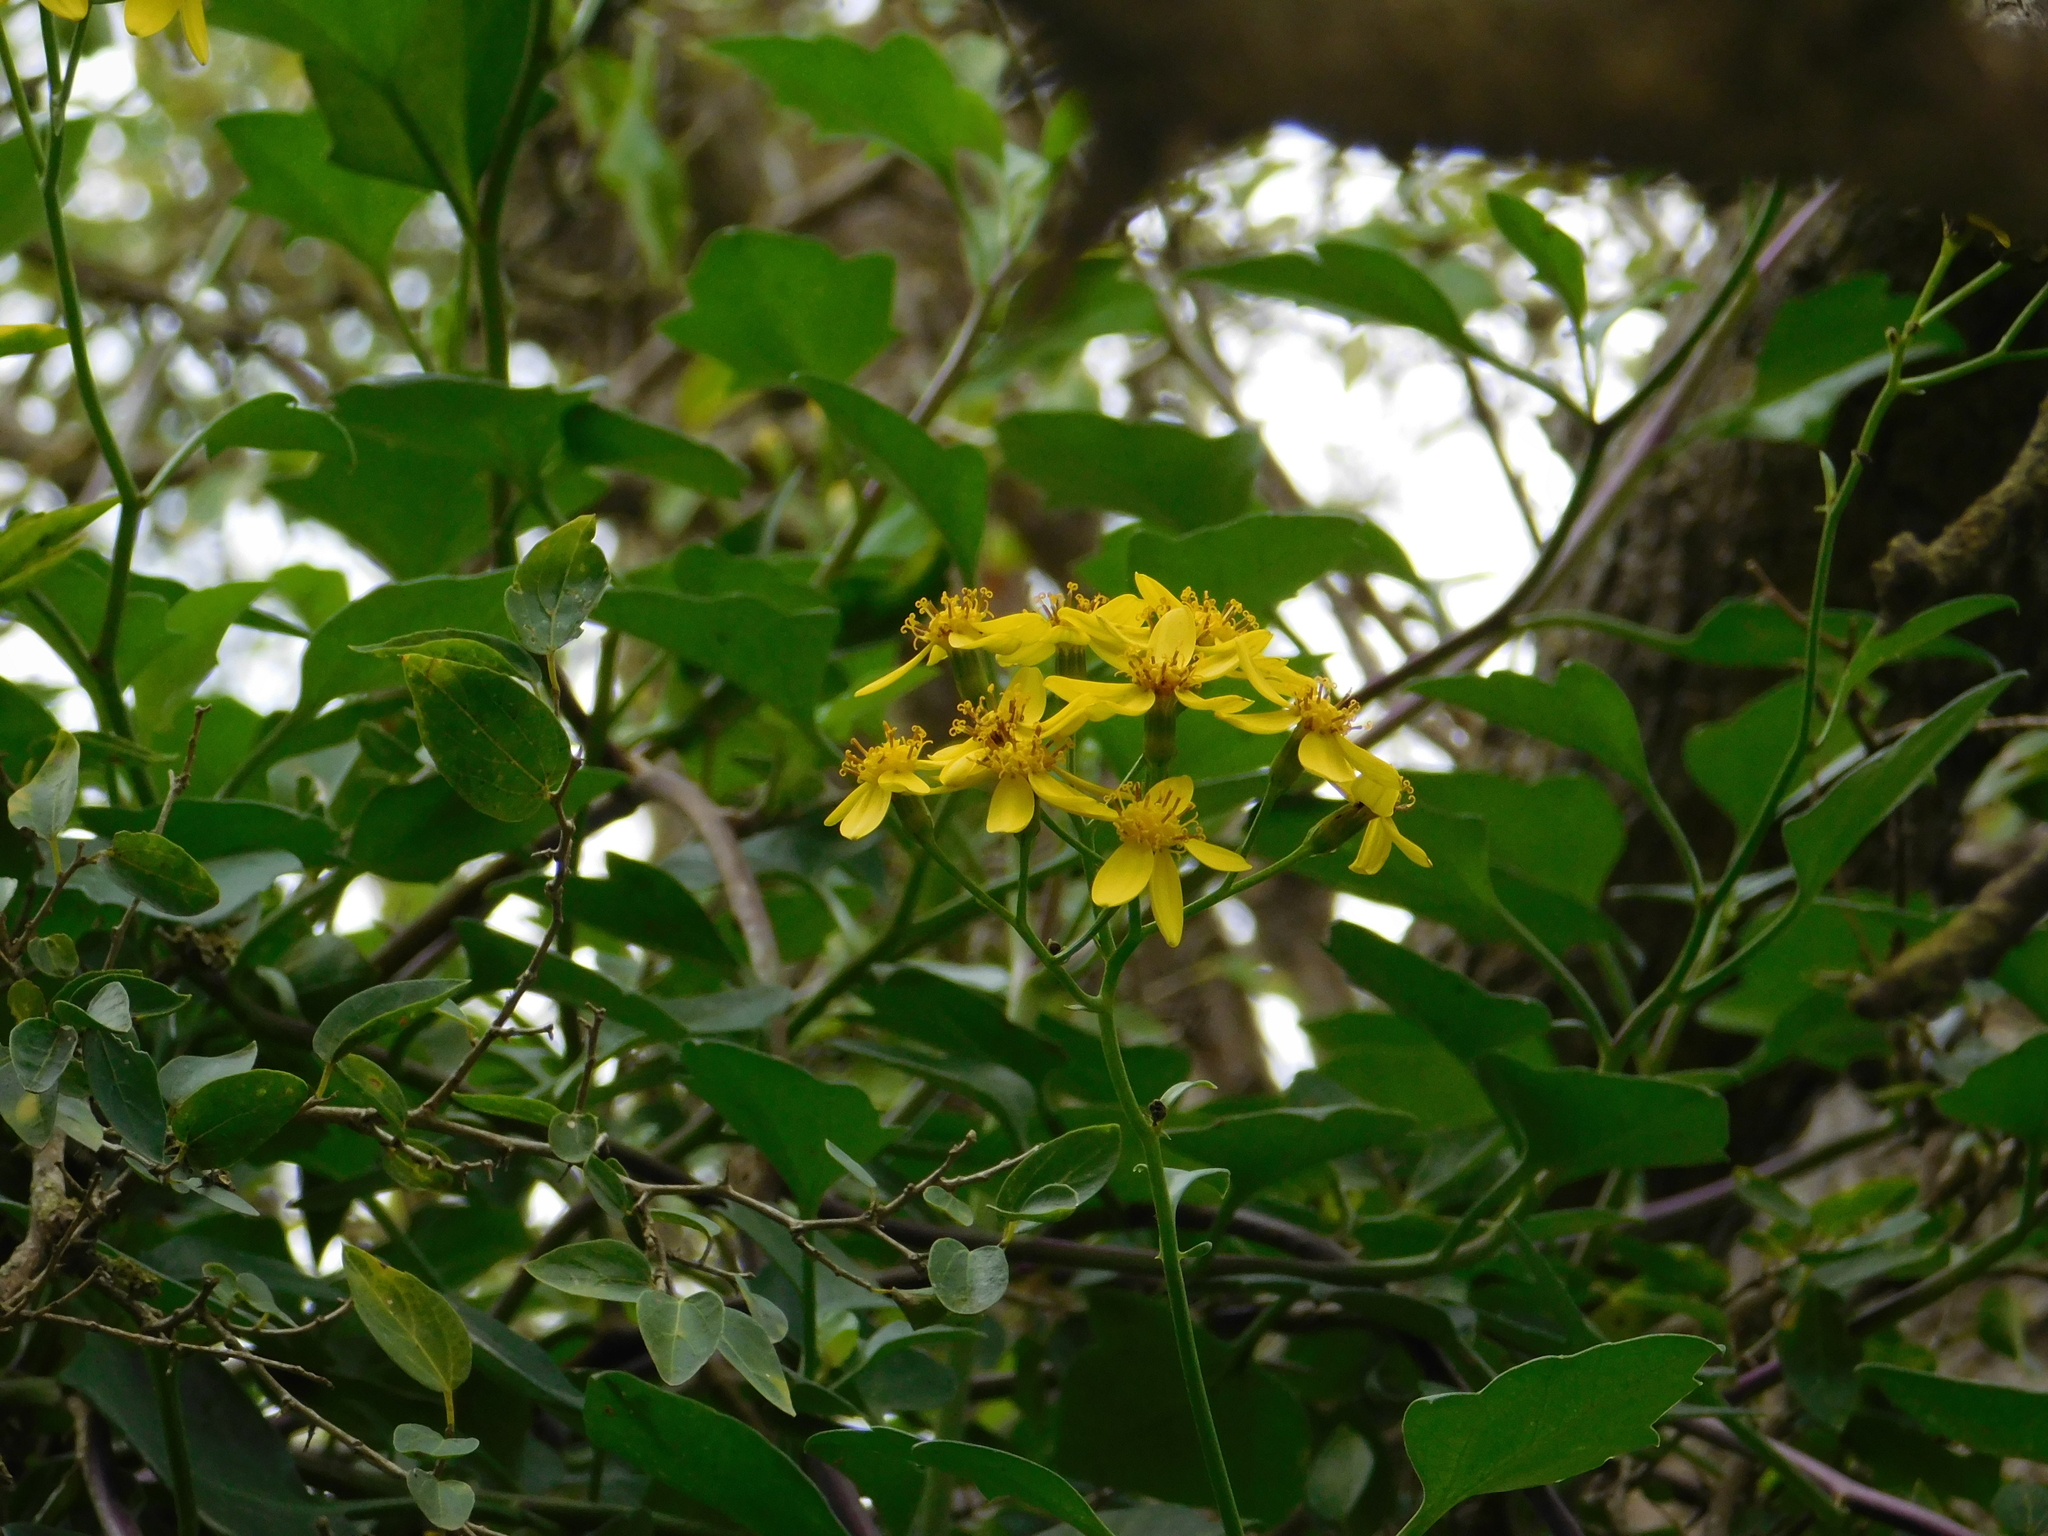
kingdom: Plantae
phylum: Tracheophyta
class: Magnoliopsida
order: Asterales
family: Asteraceae
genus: Senecio
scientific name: Senecio angulatus
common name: Climbing groundsel
